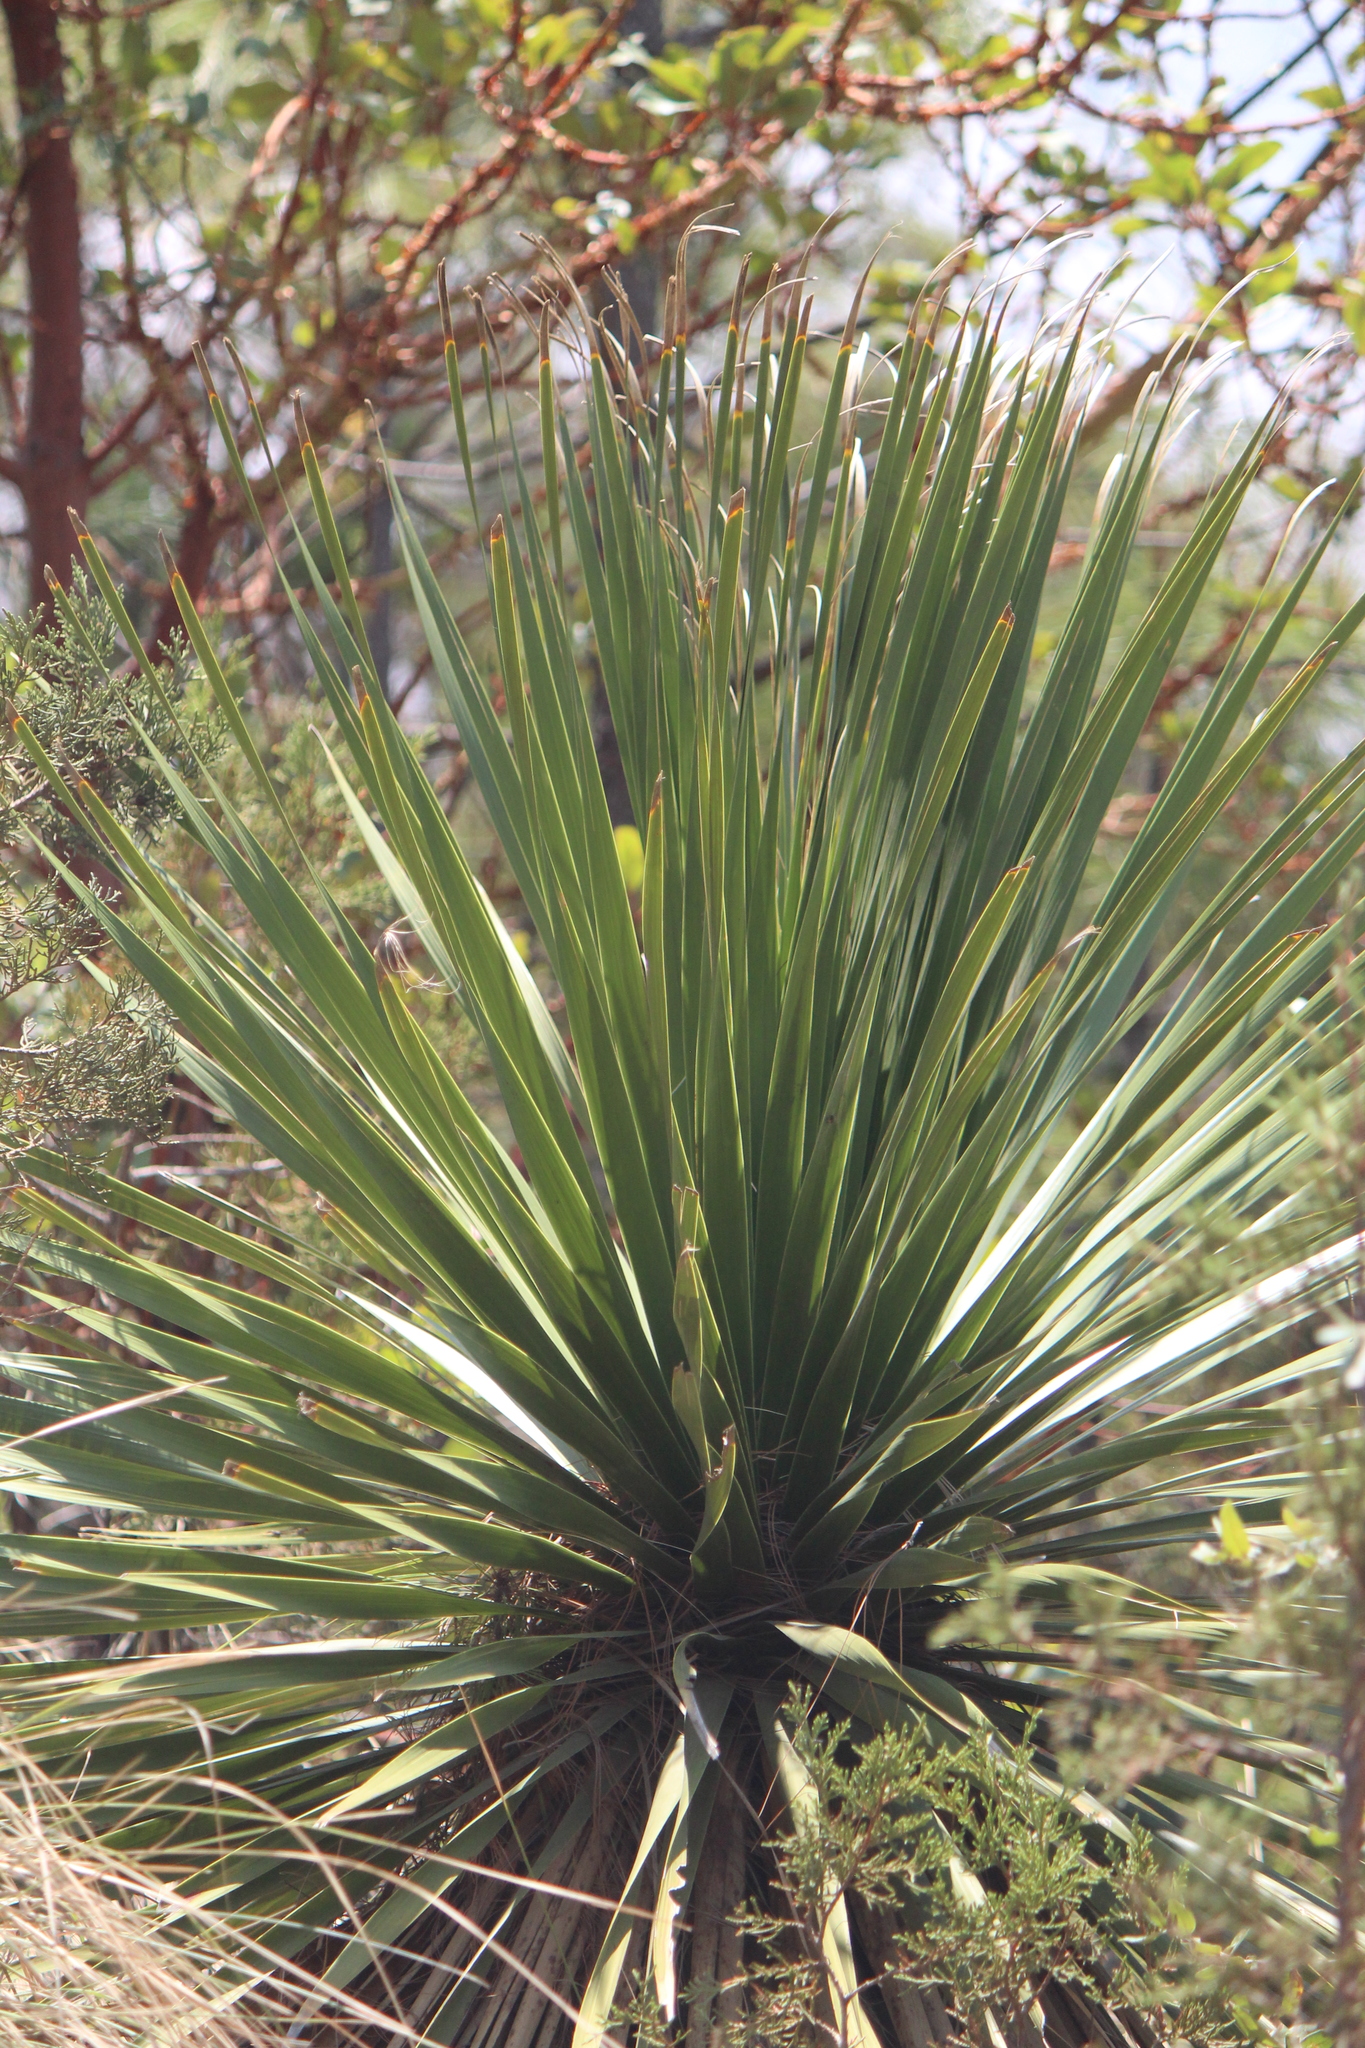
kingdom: Plantae
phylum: Tracheophyta
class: Liliopsida
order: Asparagales
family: Asparagaceae
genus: Nolina
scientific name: Nolina parviflora
